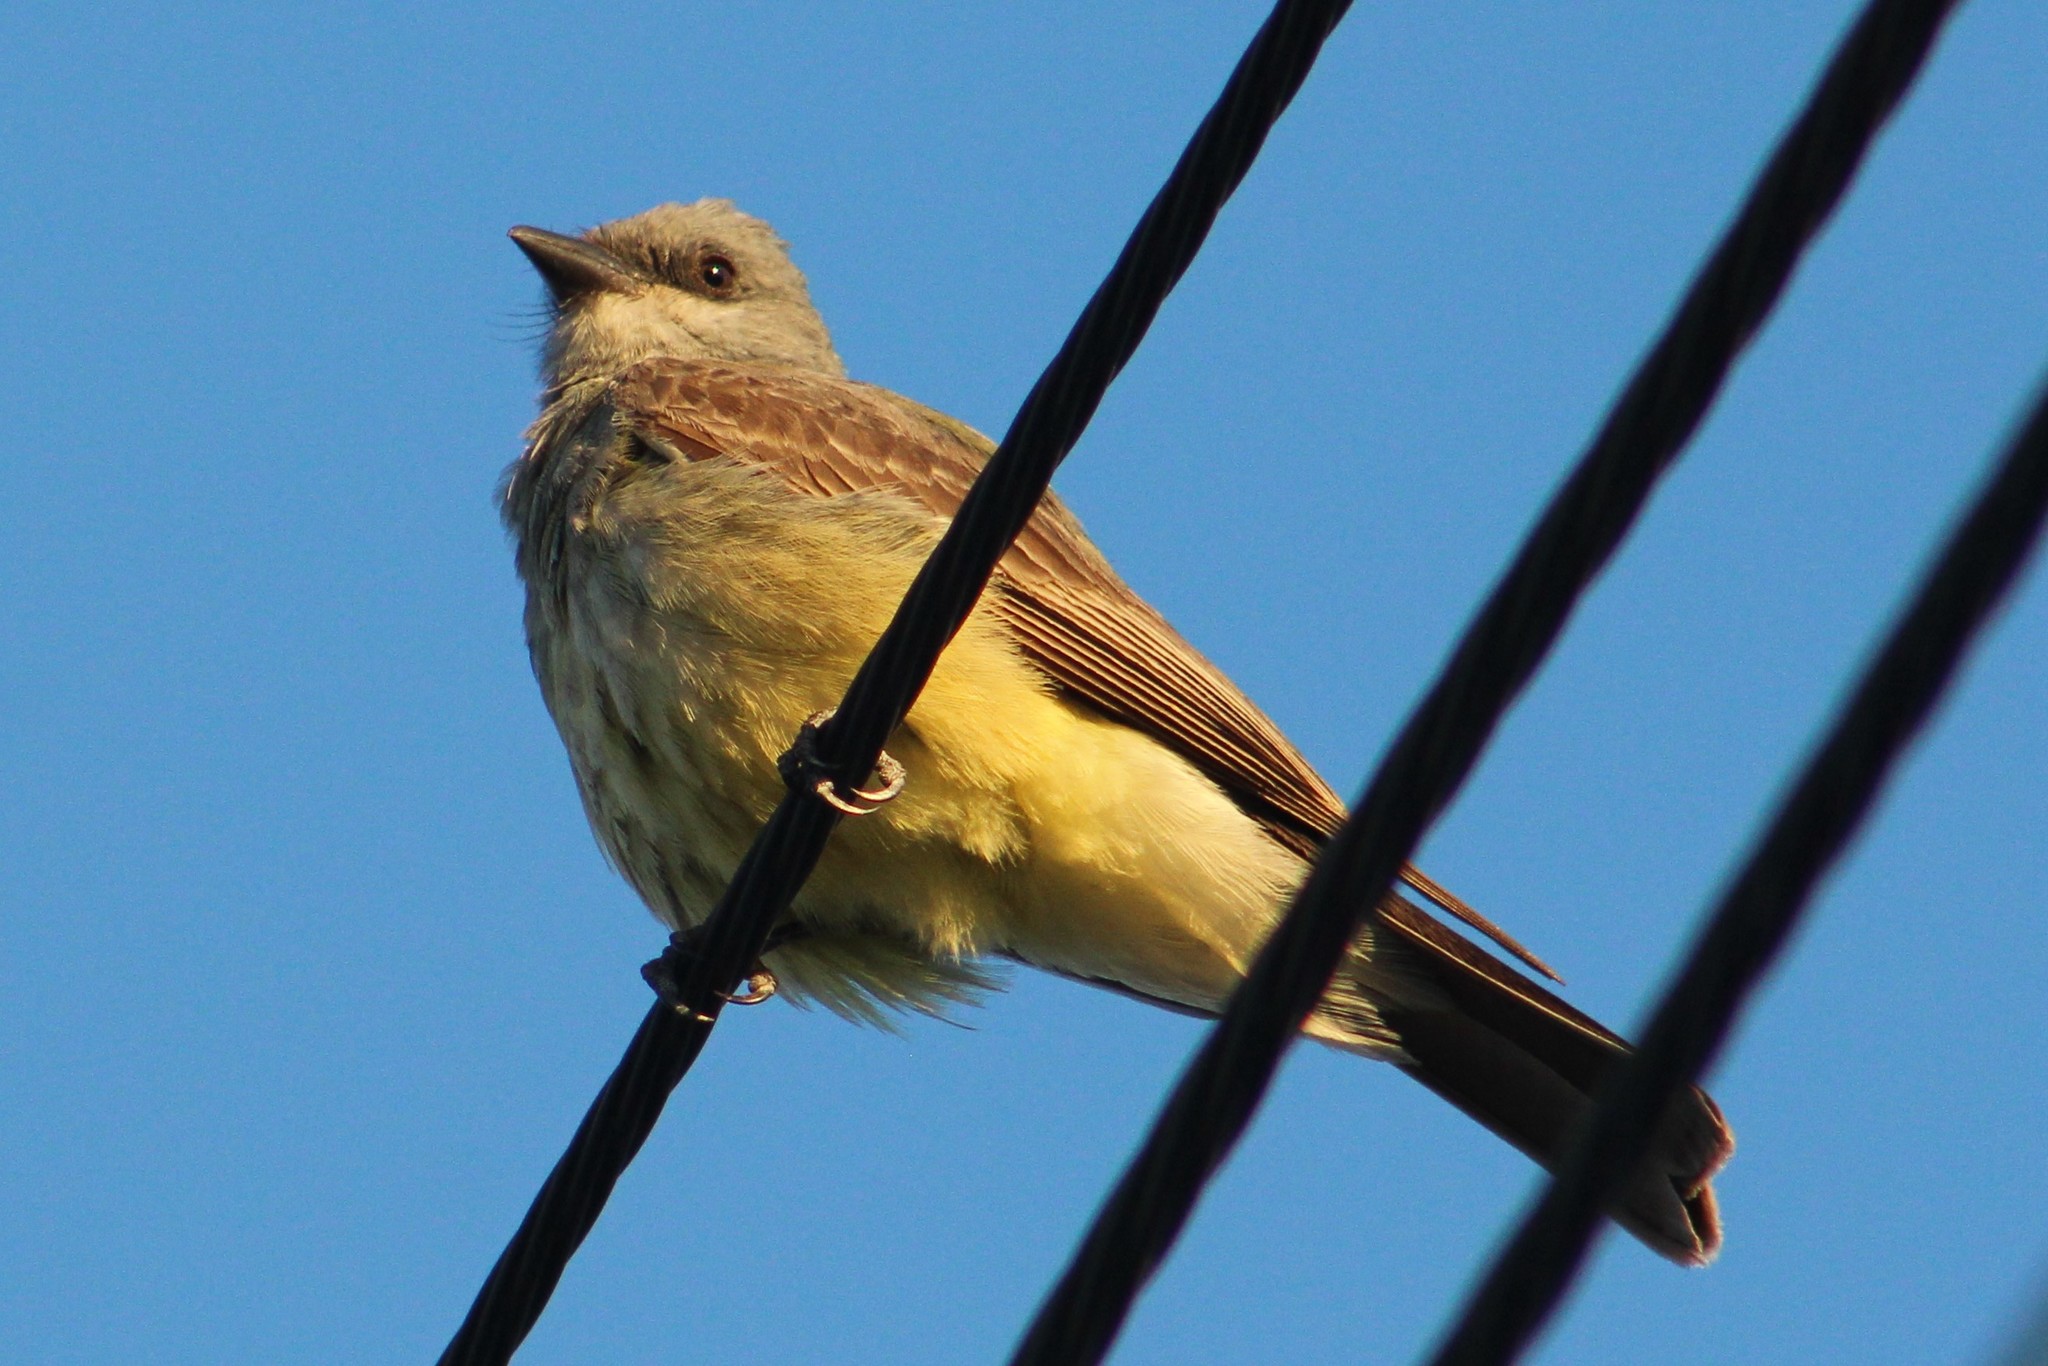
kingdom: Animalia
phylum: Chordata
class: Aves
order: Passeriformes
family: Tyrannidae
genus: Tyrannus
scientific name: Tyrannus verticalis
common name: Western kingbird
